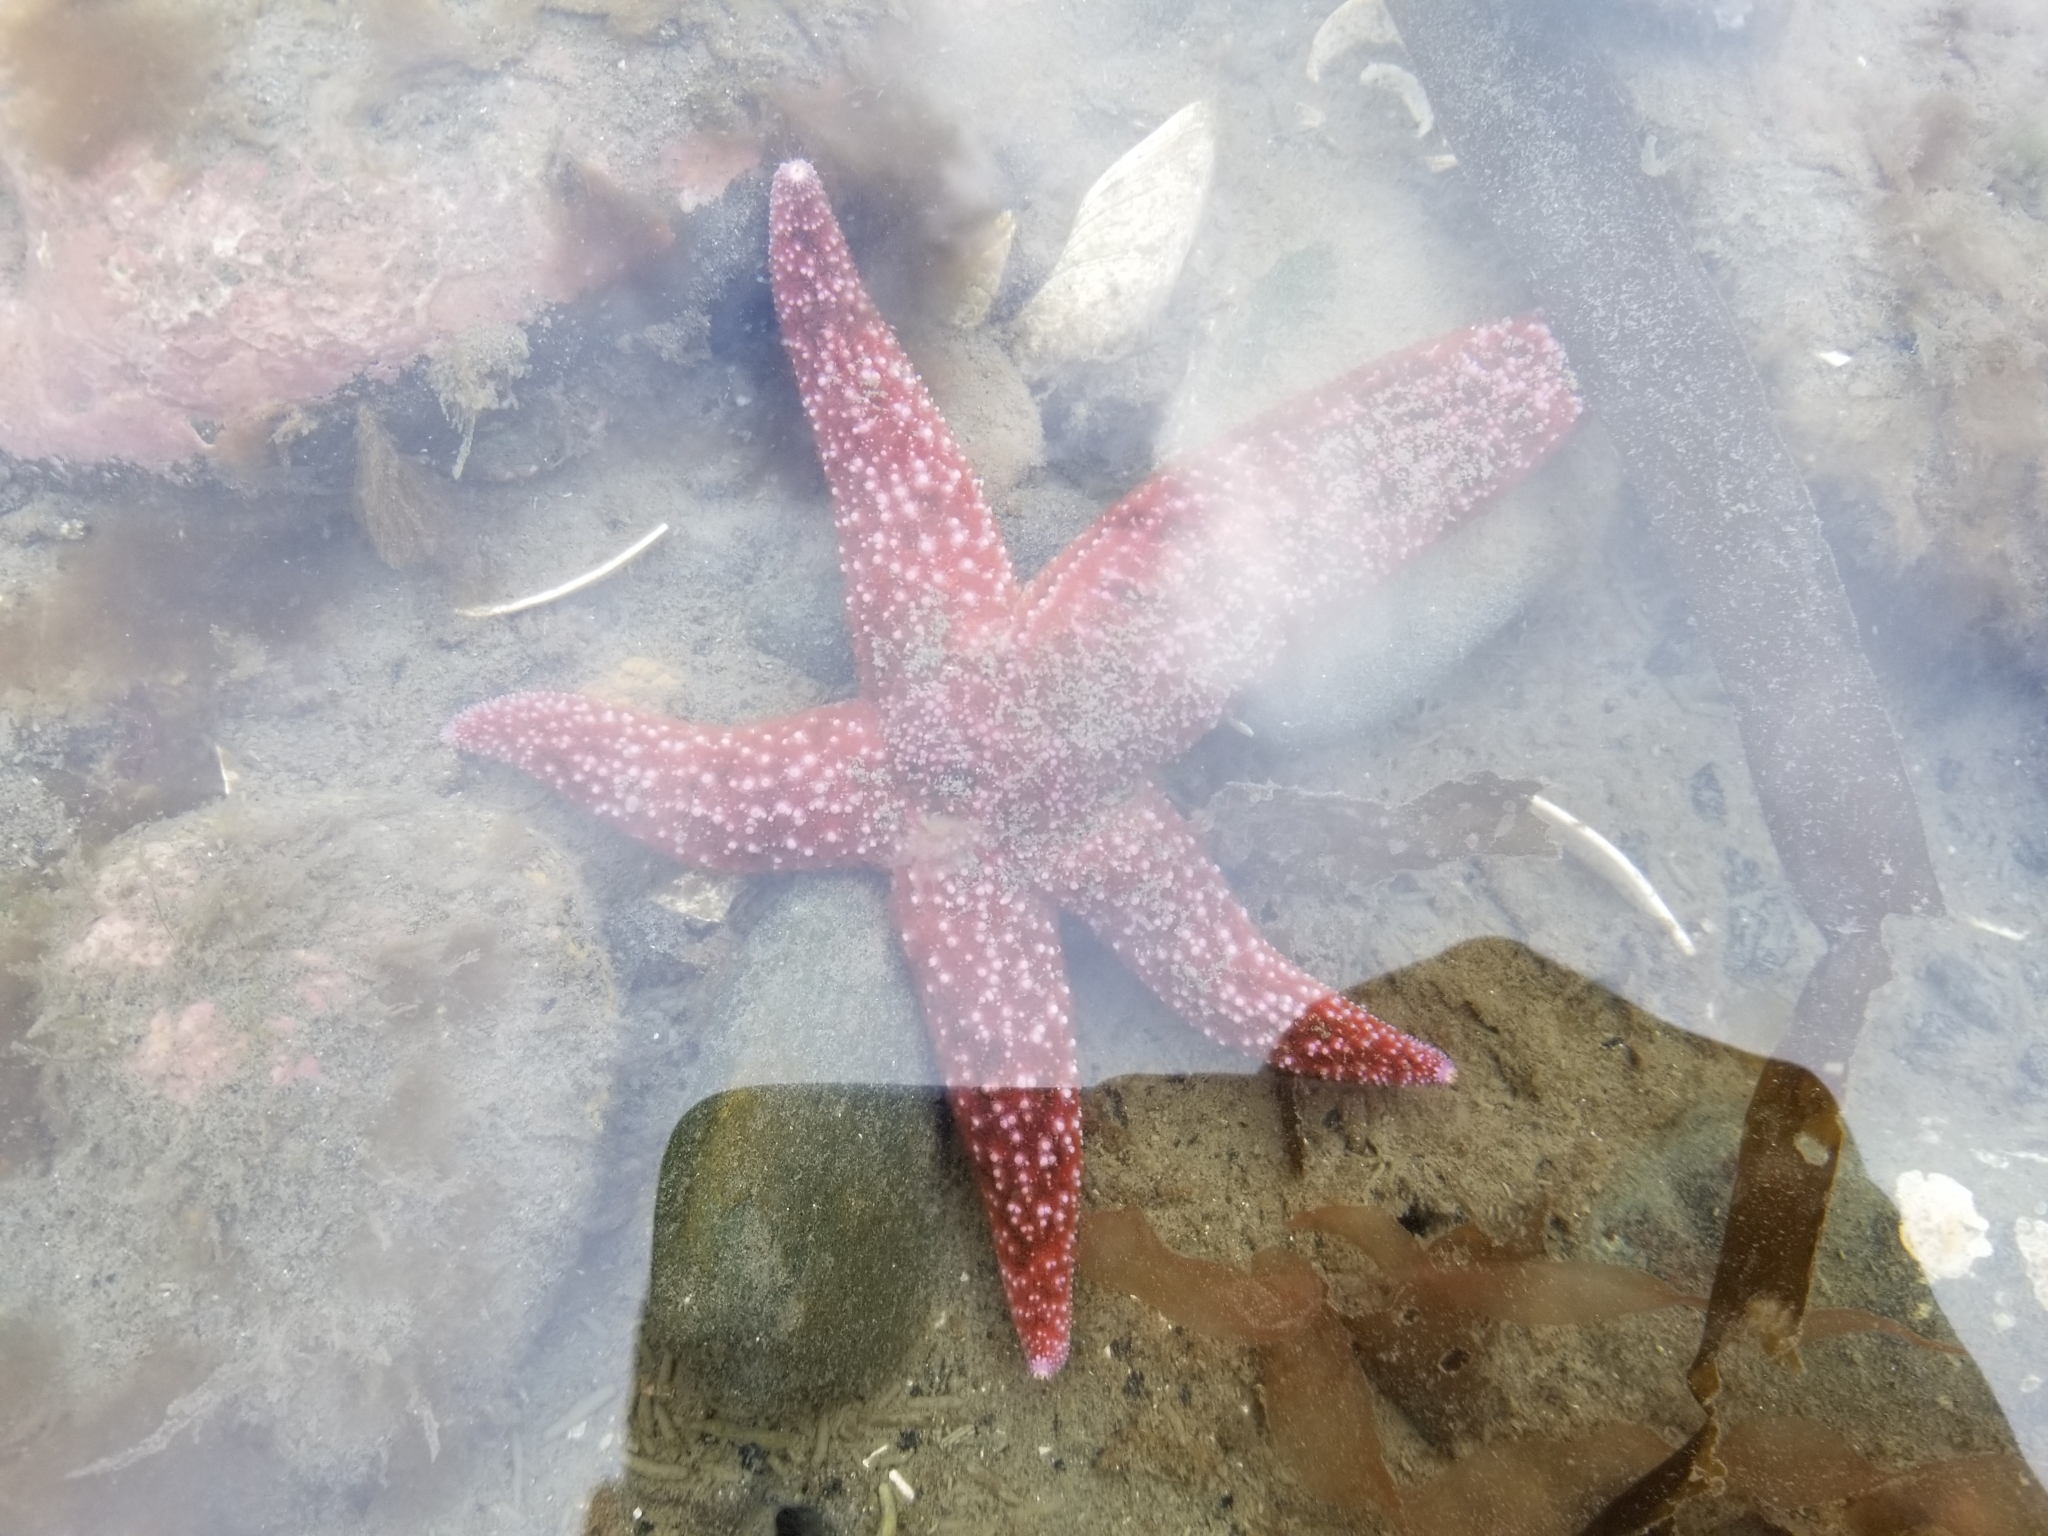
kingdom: Animalia
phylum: Echinodermata
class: Asteroidea
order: Forcipulatida
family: Asteriidae
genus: Evasterias
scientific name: Evasterias troschelii
